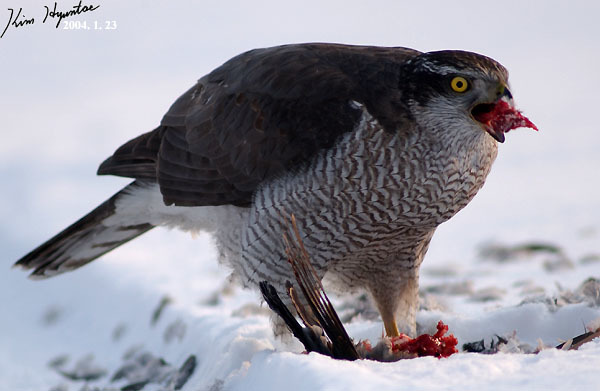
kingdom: Animalia
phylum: Chordata
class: Aves
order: Accipitriformes
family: Accipitridae
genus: Accipiter
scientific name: Accipiter gentilis
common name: Northern goshawk
